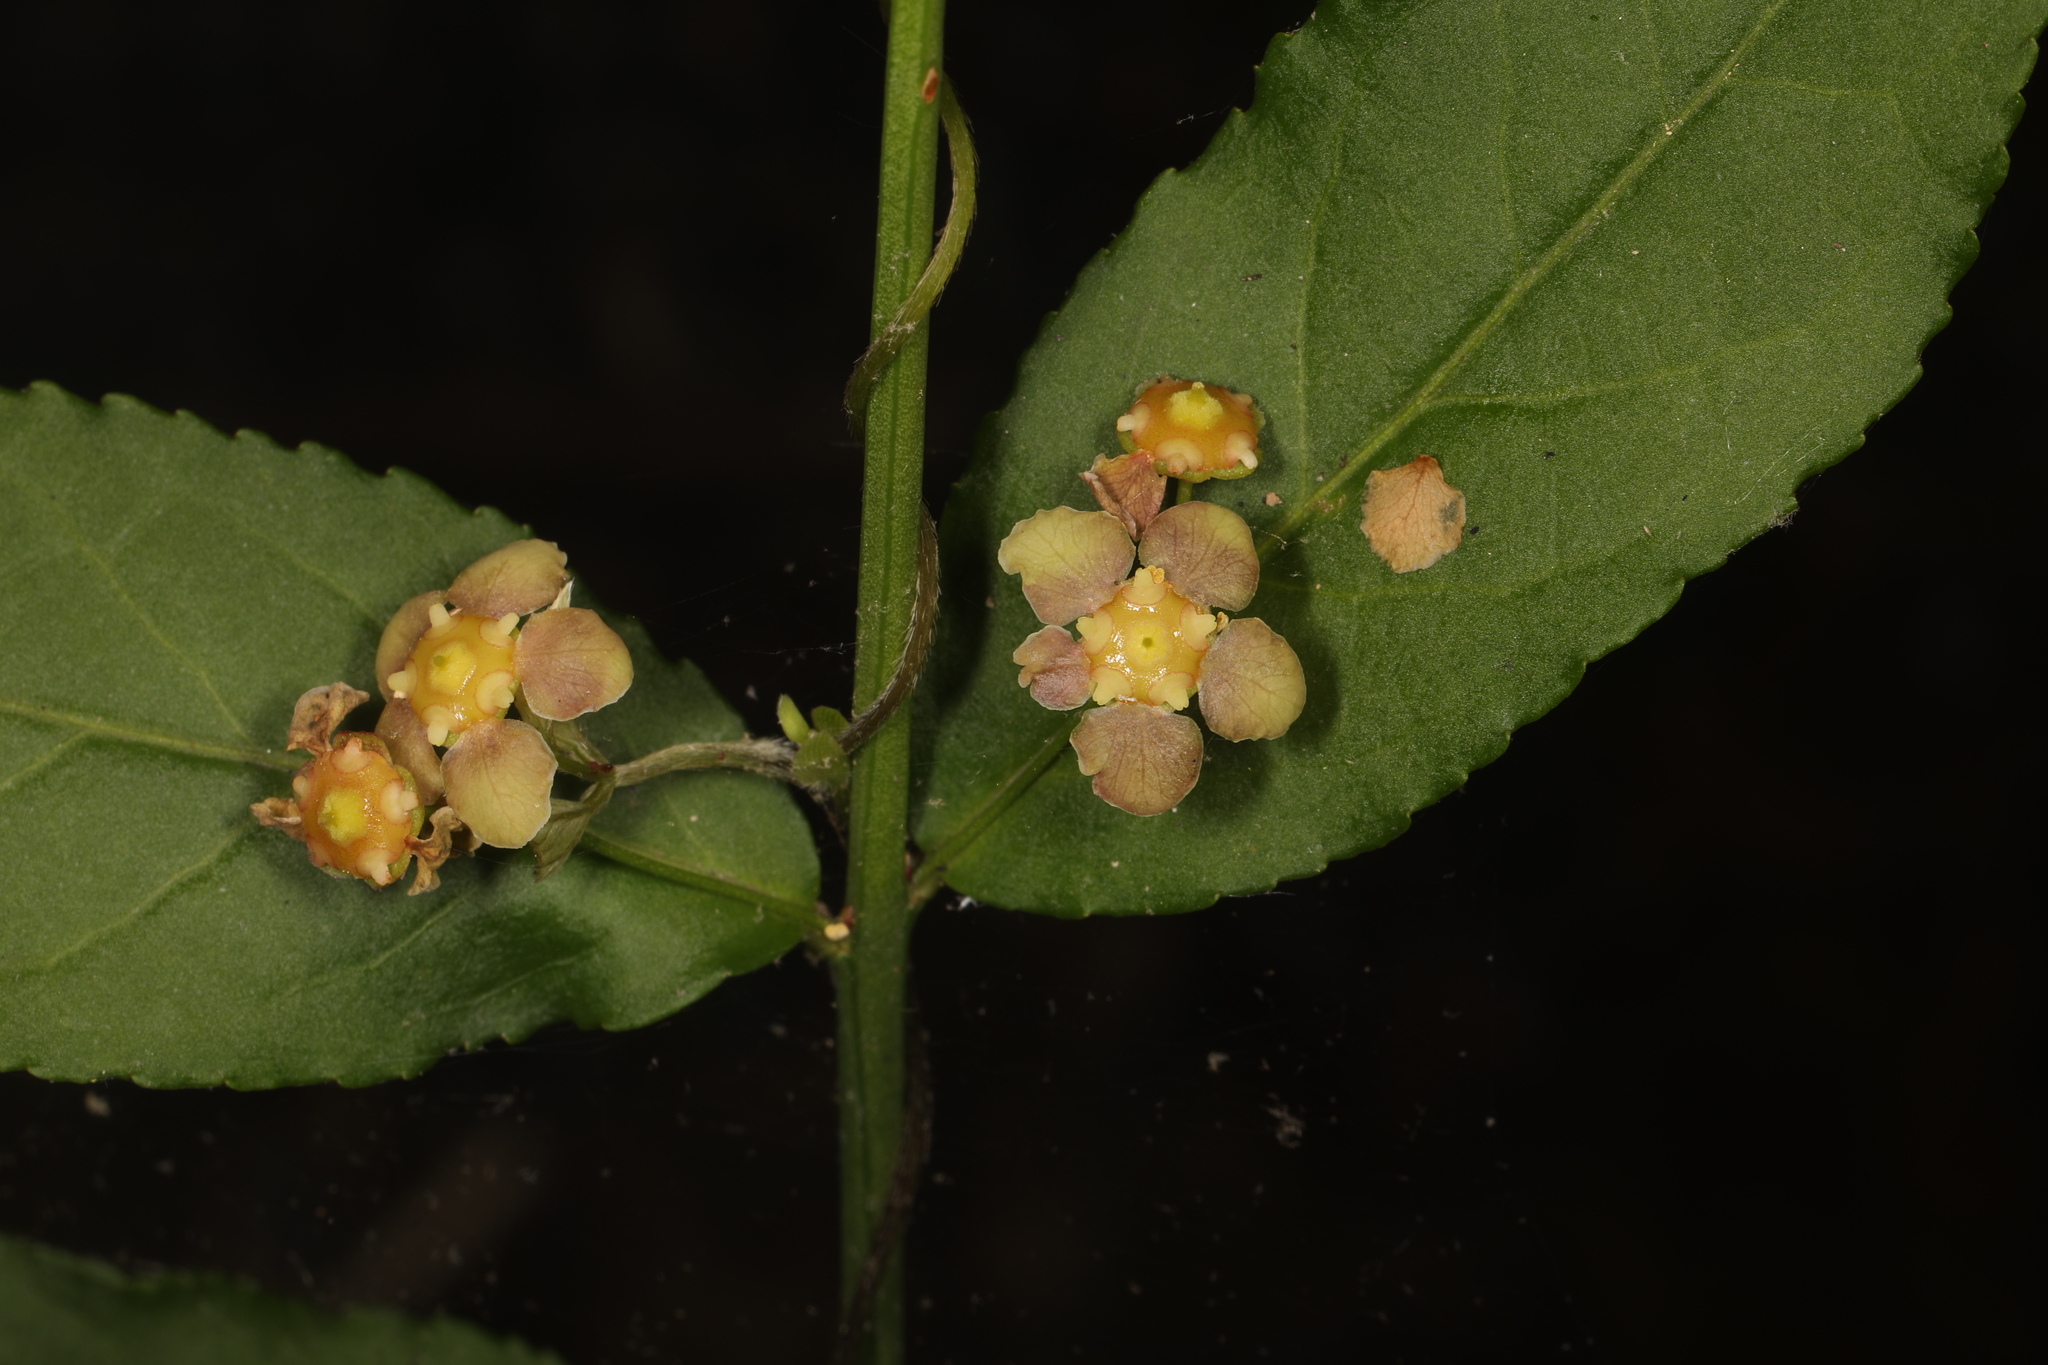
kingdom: Plantae
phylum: Tracheophyta
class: Magnoliopsida
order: Celastrales
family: Celastraceae
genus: Euonymus
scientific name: Euonymus americanus
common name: Bursting-heart
